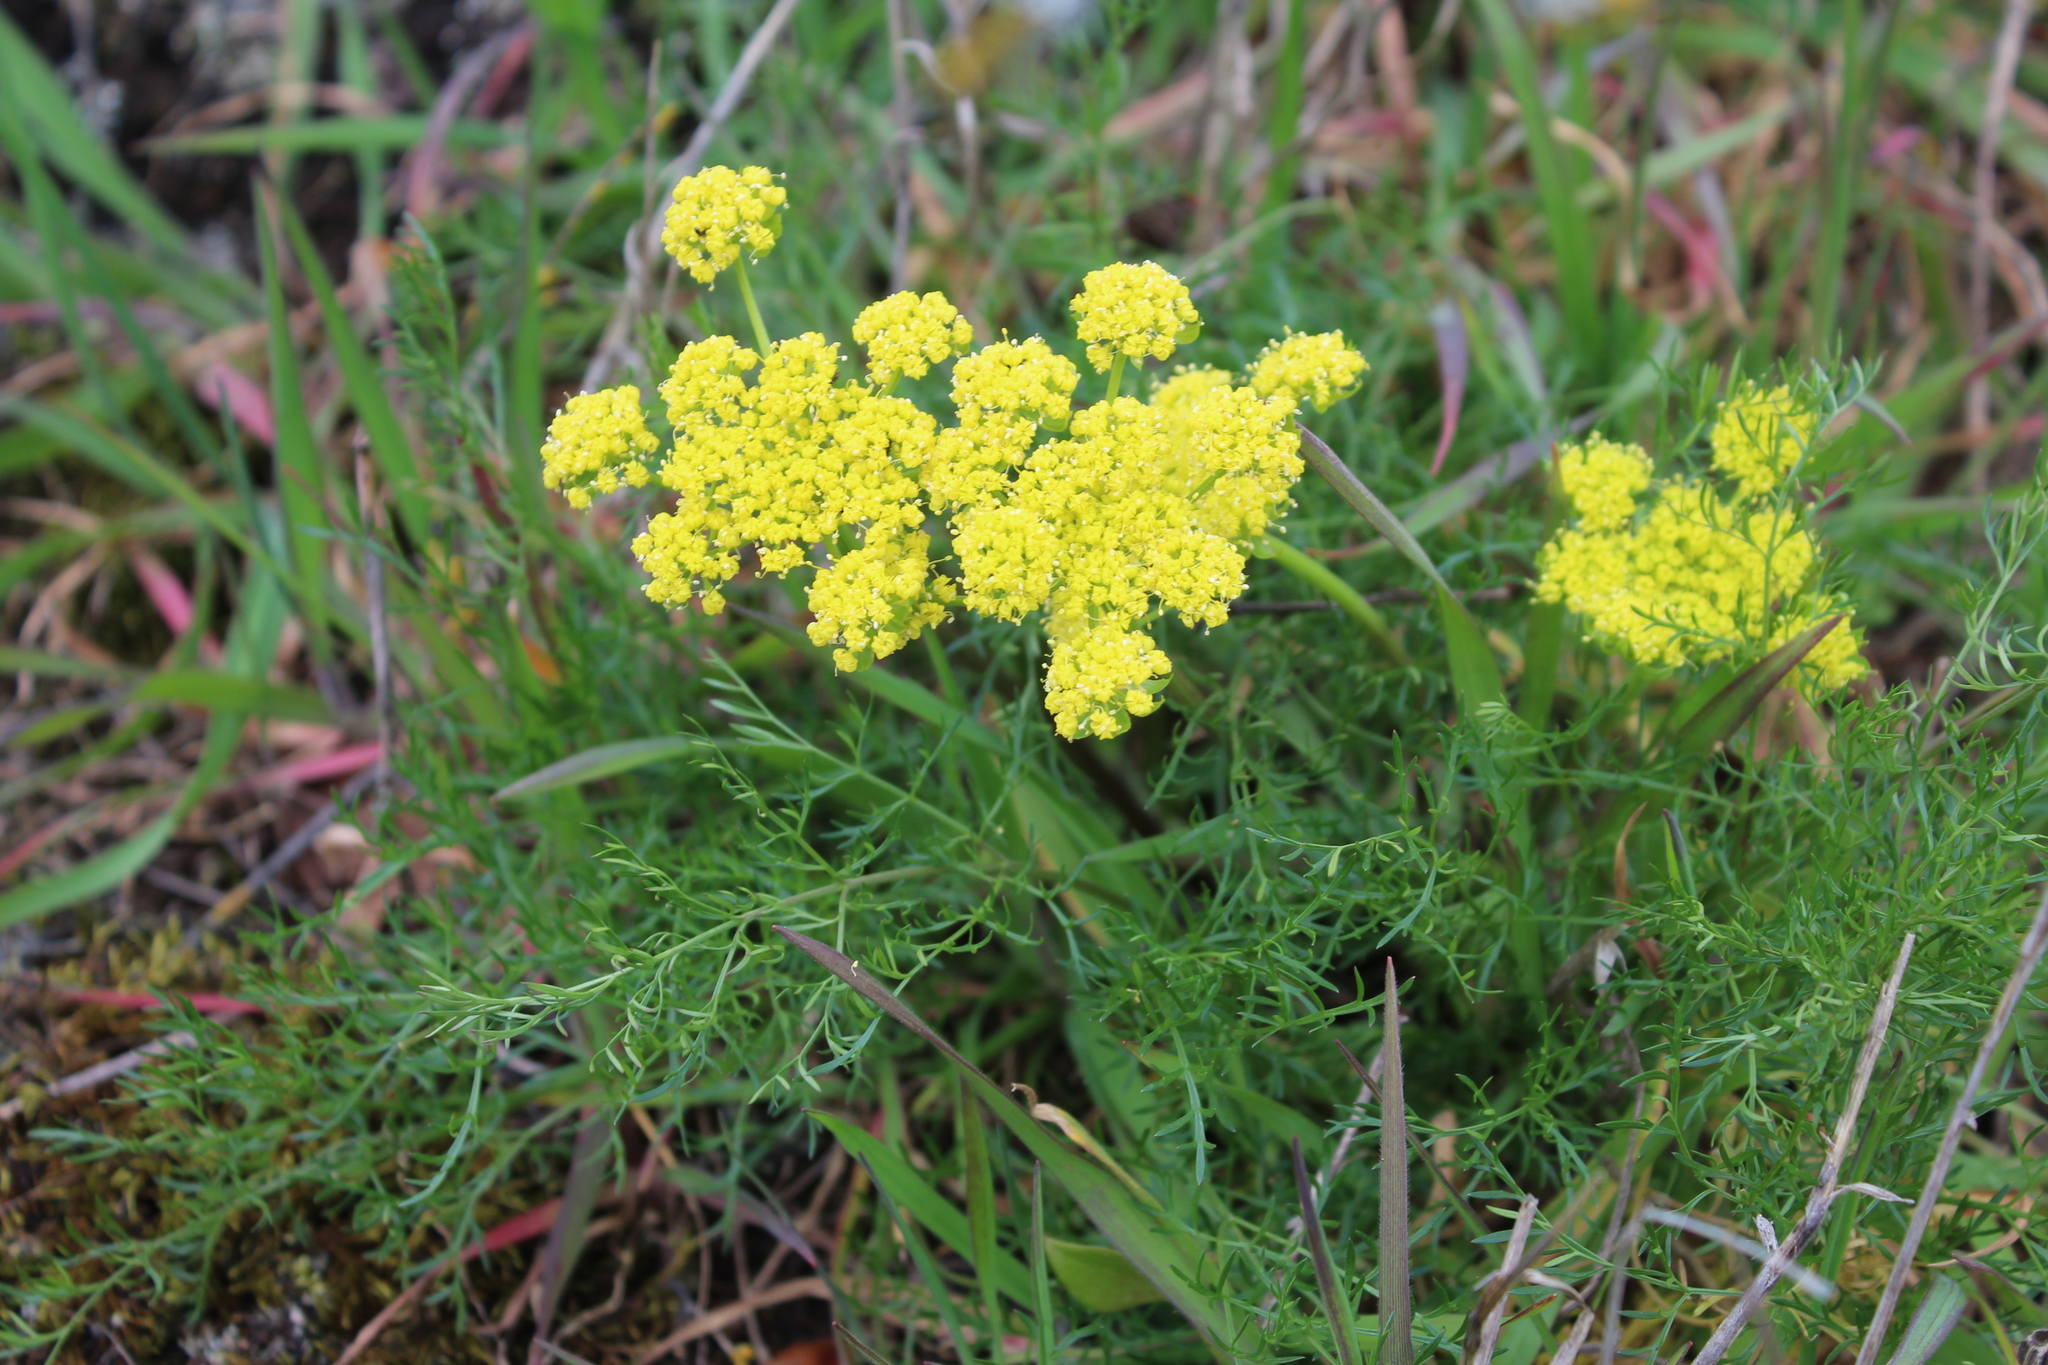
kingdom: Plantae
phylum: Tracheophyta
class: Magnoliopsida
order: Apiales
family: Apiaceae
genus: Lomatium
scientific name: Lomatium utriculatum
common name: Fine-leaf desert-parsley
